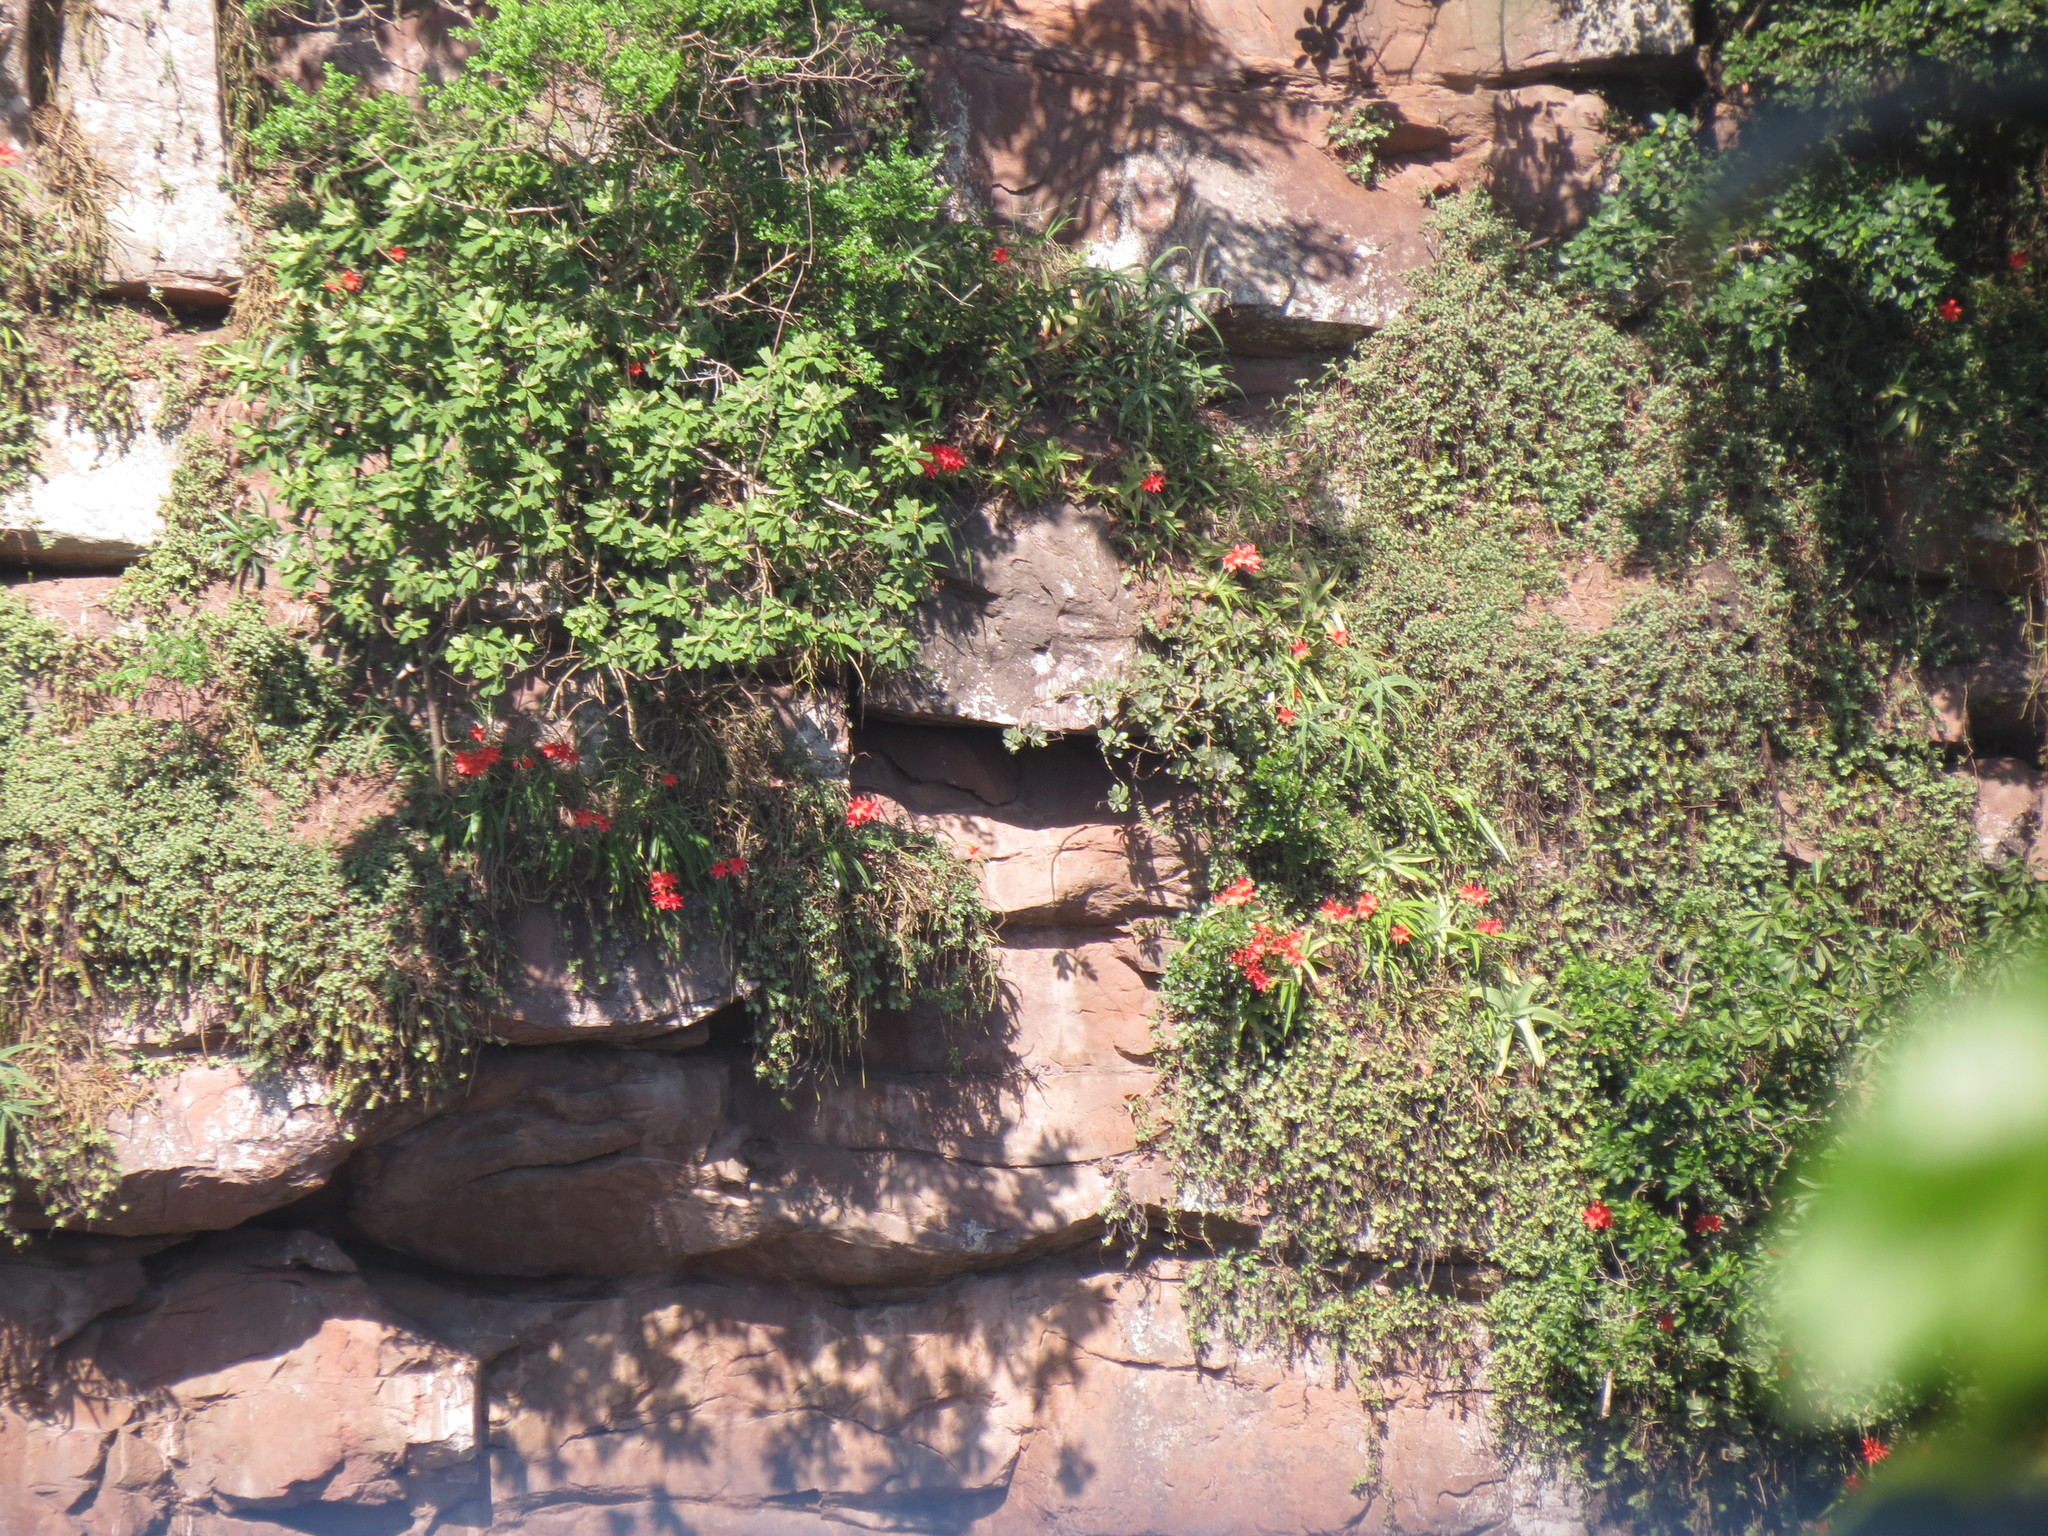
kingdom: Plantae
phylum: Tracheophyta
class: Liliopsida
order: Asparagales
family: Amaryllidaceae
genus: Cyrtanthus
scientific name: Cyrtanthus sanguineus
